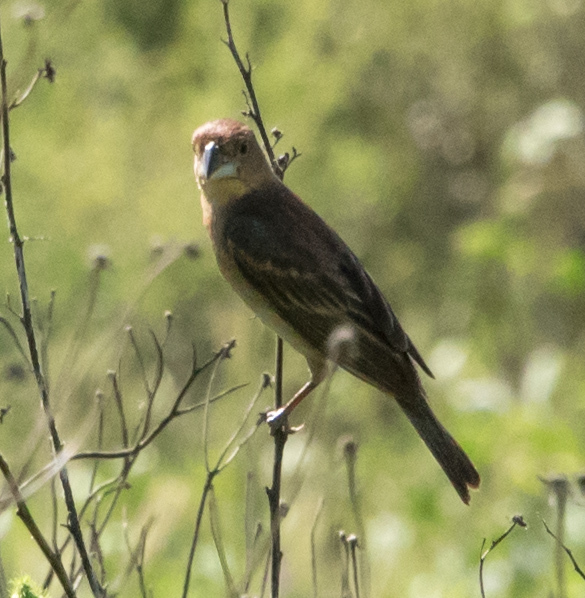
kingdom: Animalia
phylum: Chordata
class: Aves
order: Passeriformes
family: Cardinalidae
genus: Passerina
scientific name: Passerina caerulea
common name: Blue grosbeak
